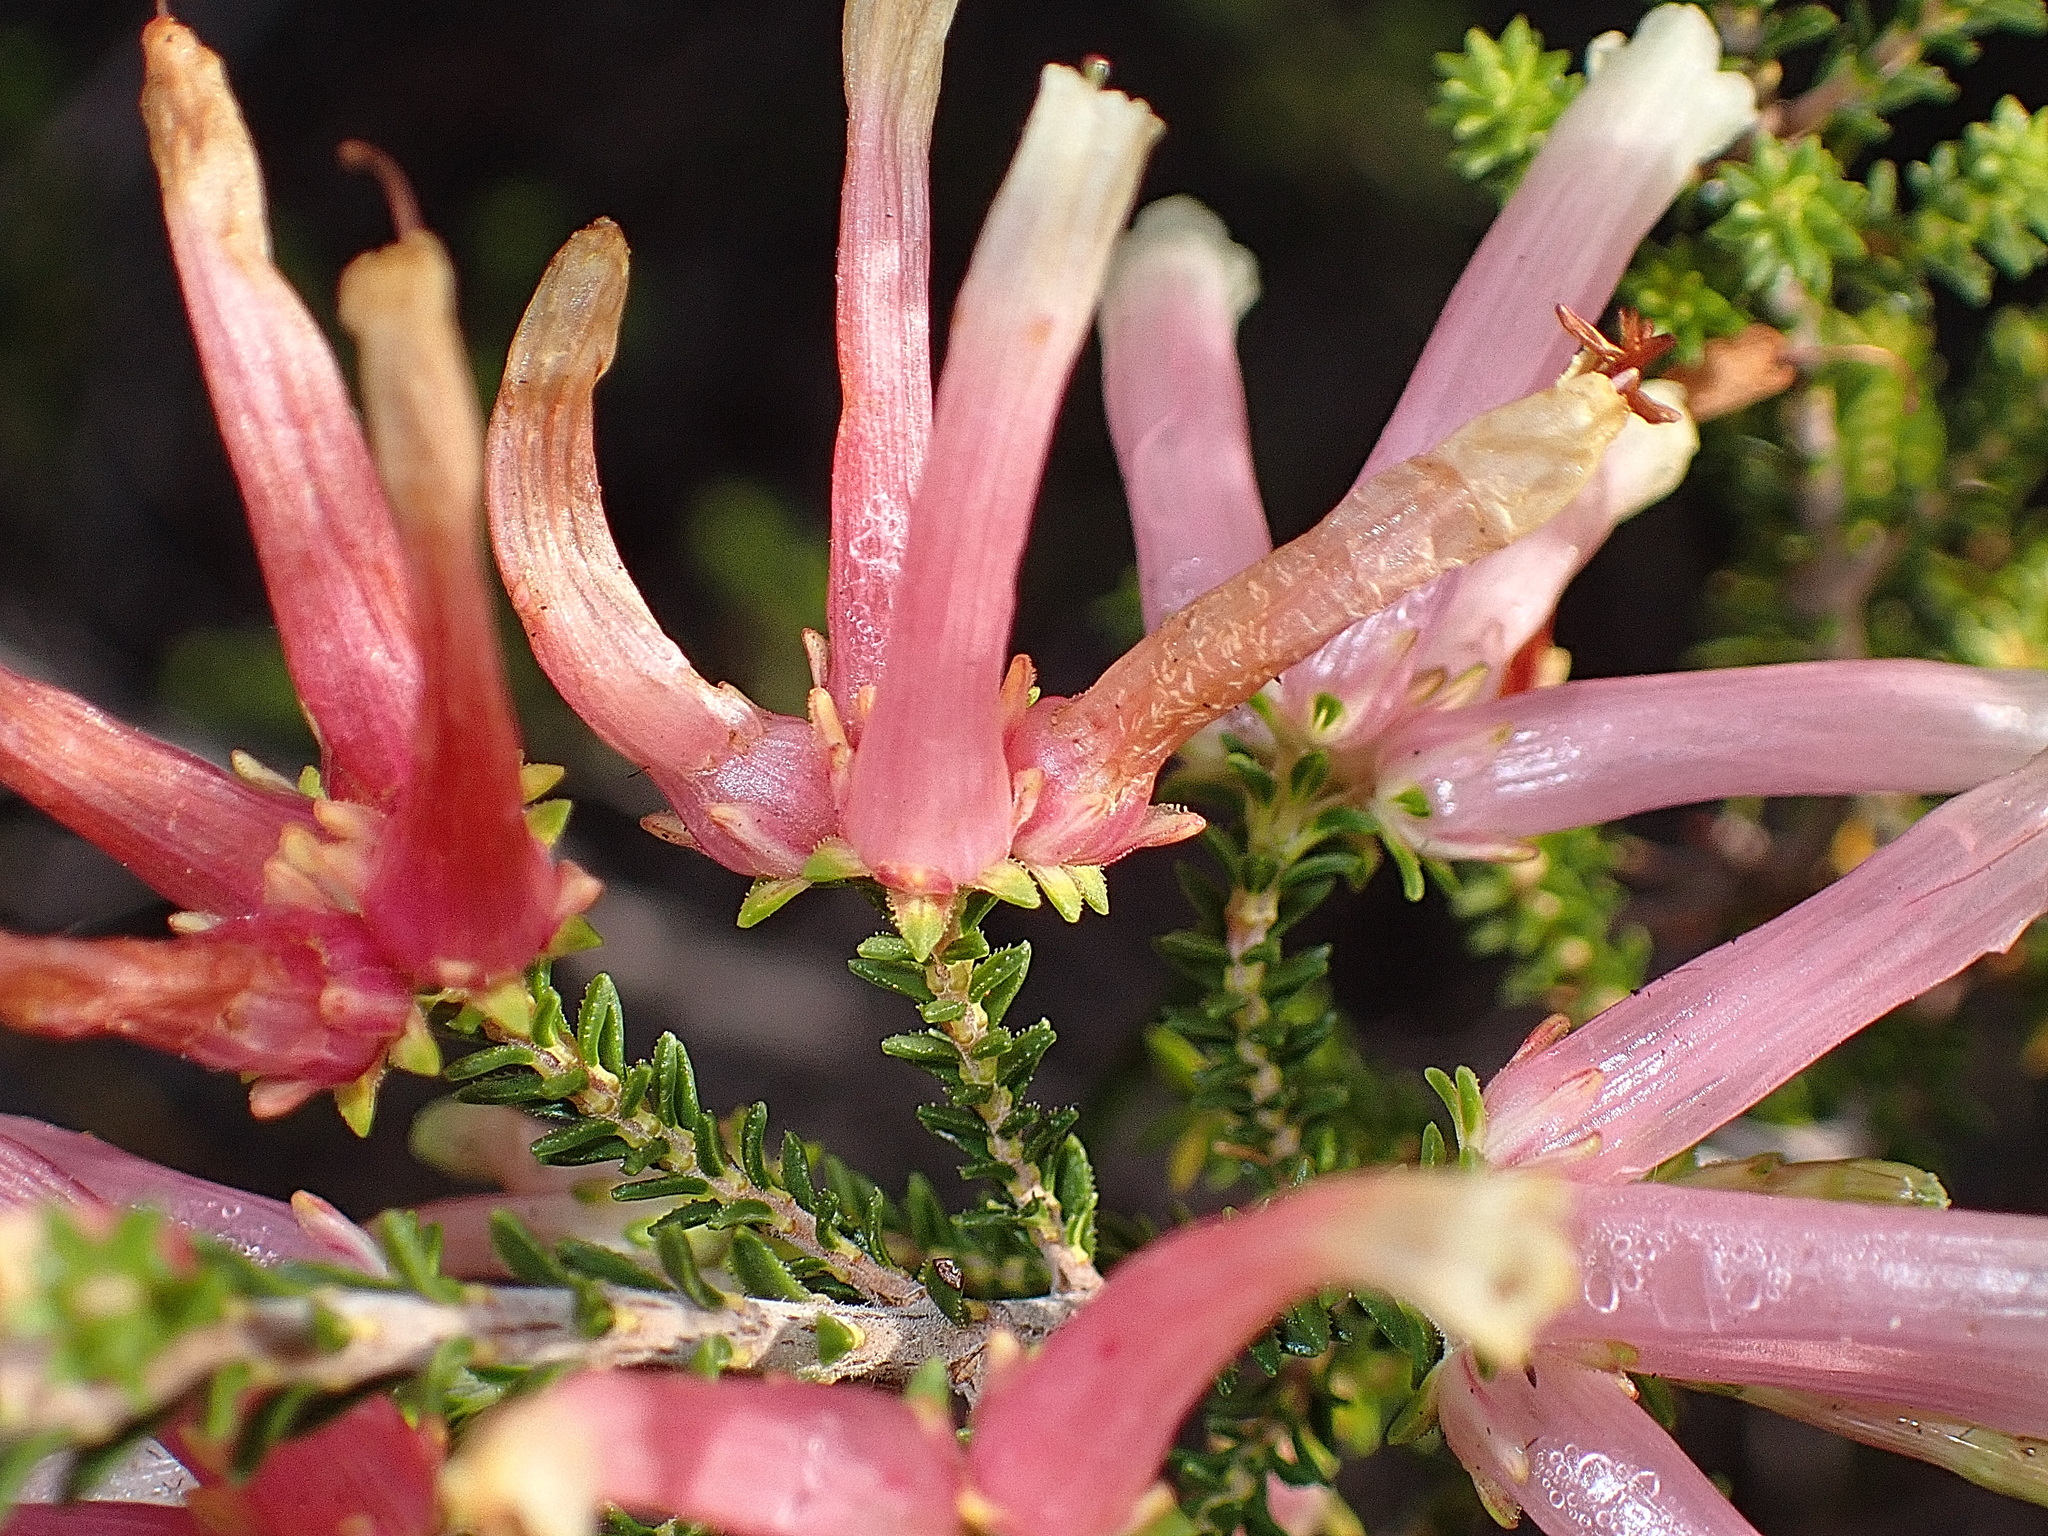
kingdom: Plantae
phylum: Tracheophyta
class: Magnoliopsida
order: Ericales
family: Ericaceae
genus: Erica
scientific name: Erica versicolor
